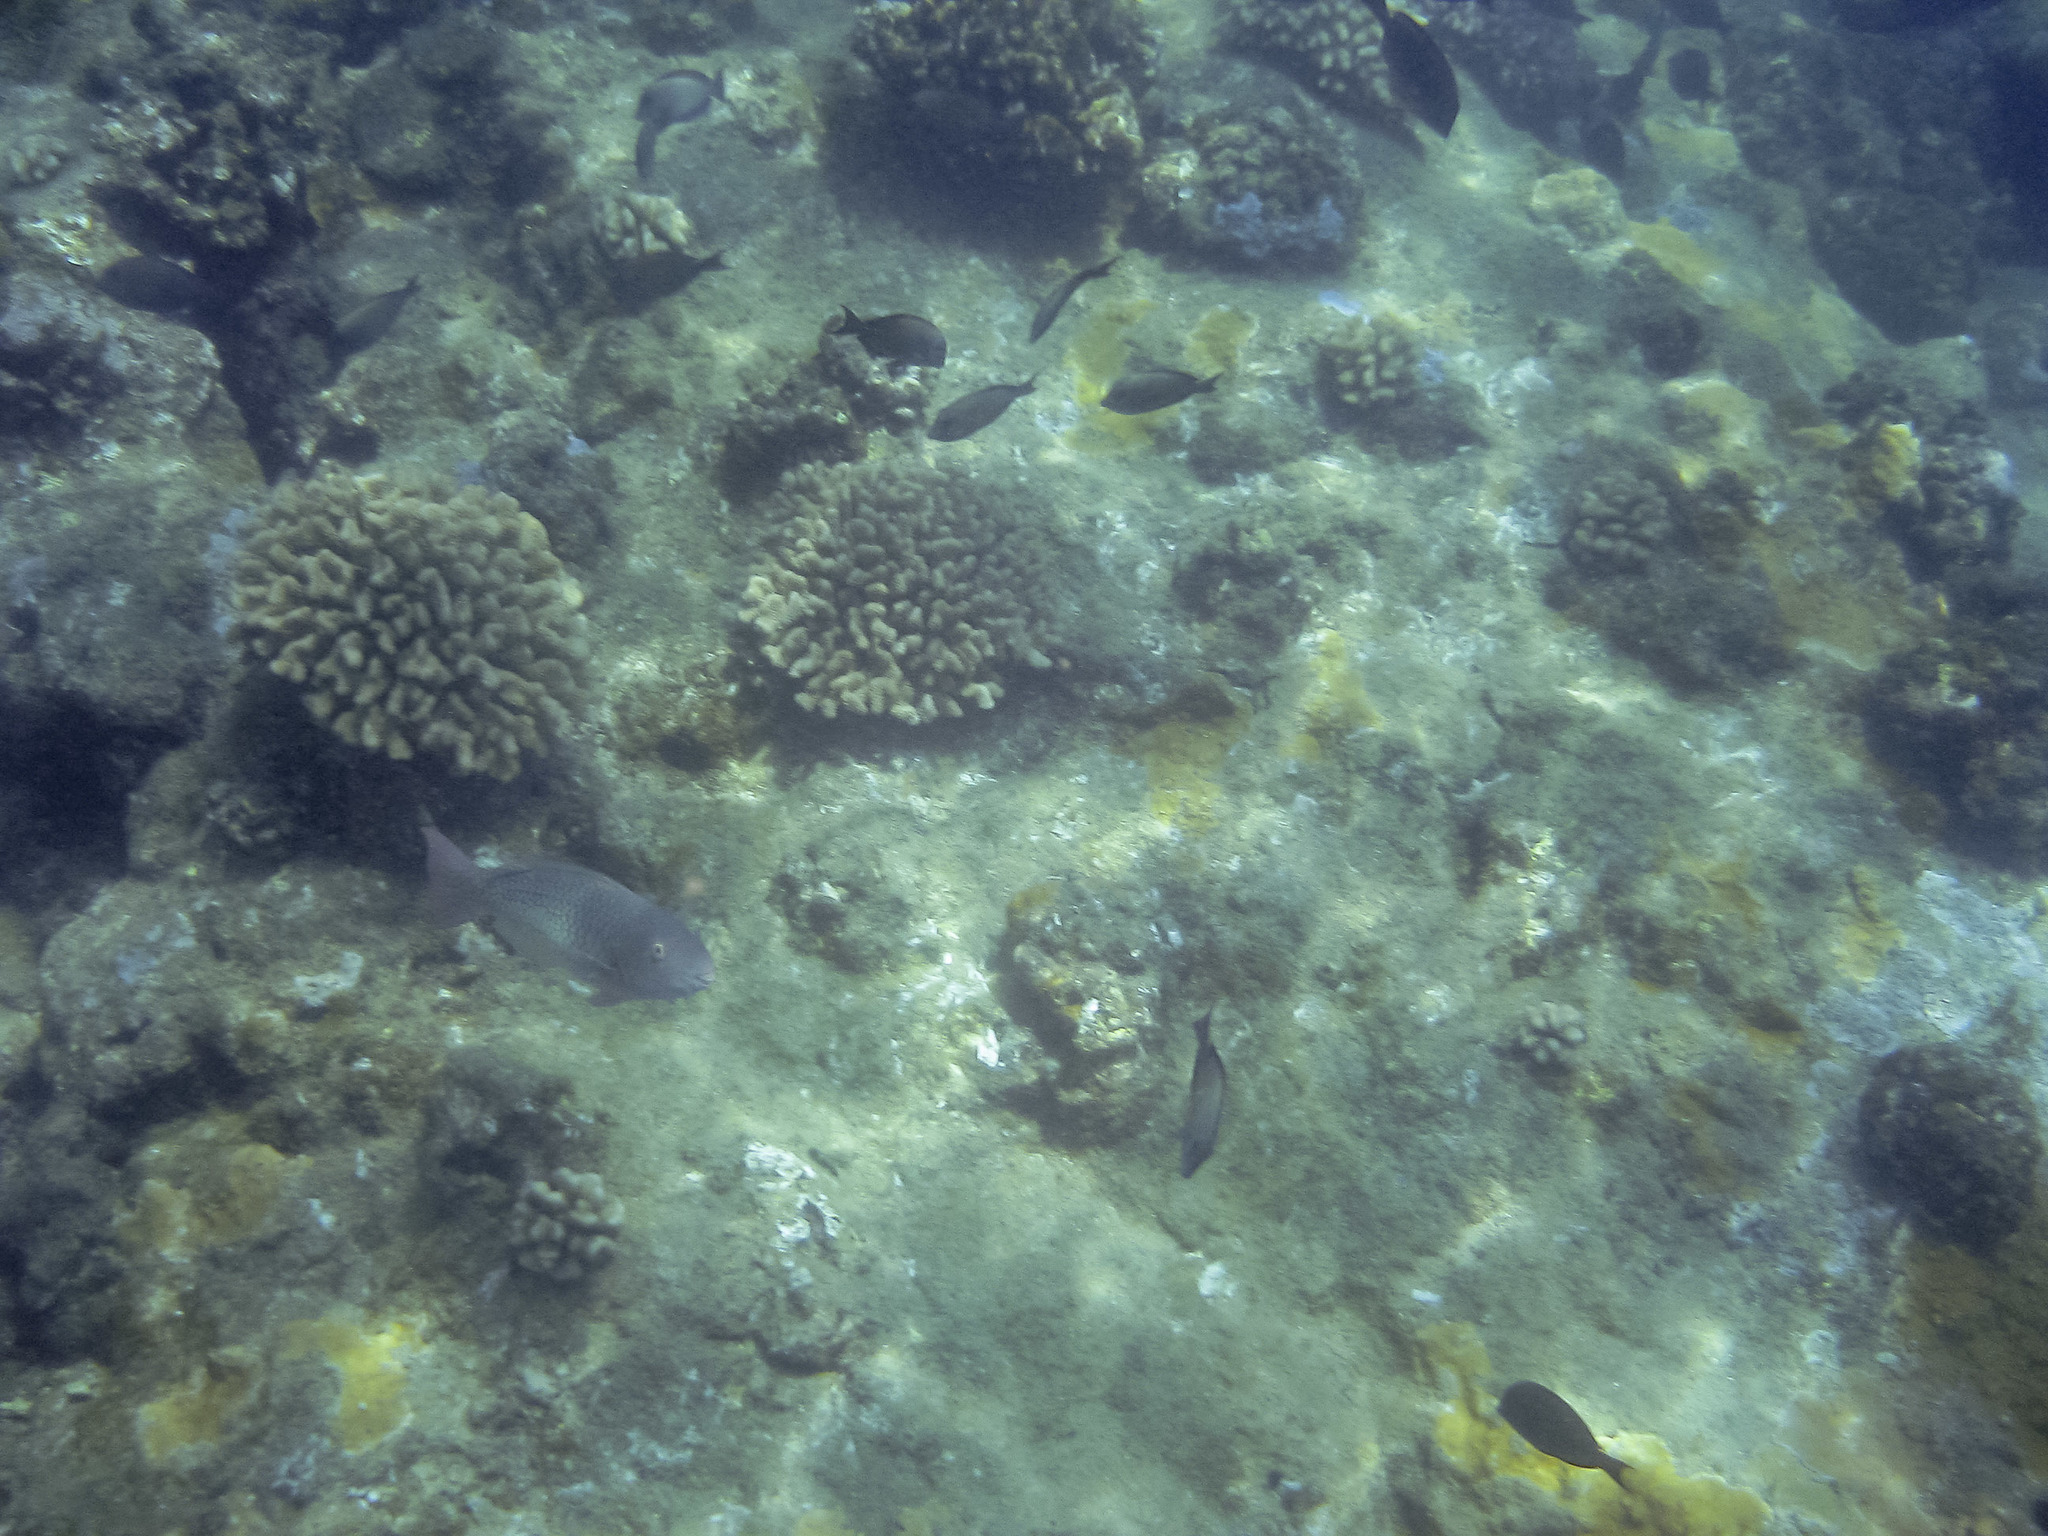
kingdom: Animalia
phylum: Chordata
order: Perciformes
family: Scaridae
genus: Scarus
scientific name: Scarus rubroviolaceus
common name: Ember parrotfish
